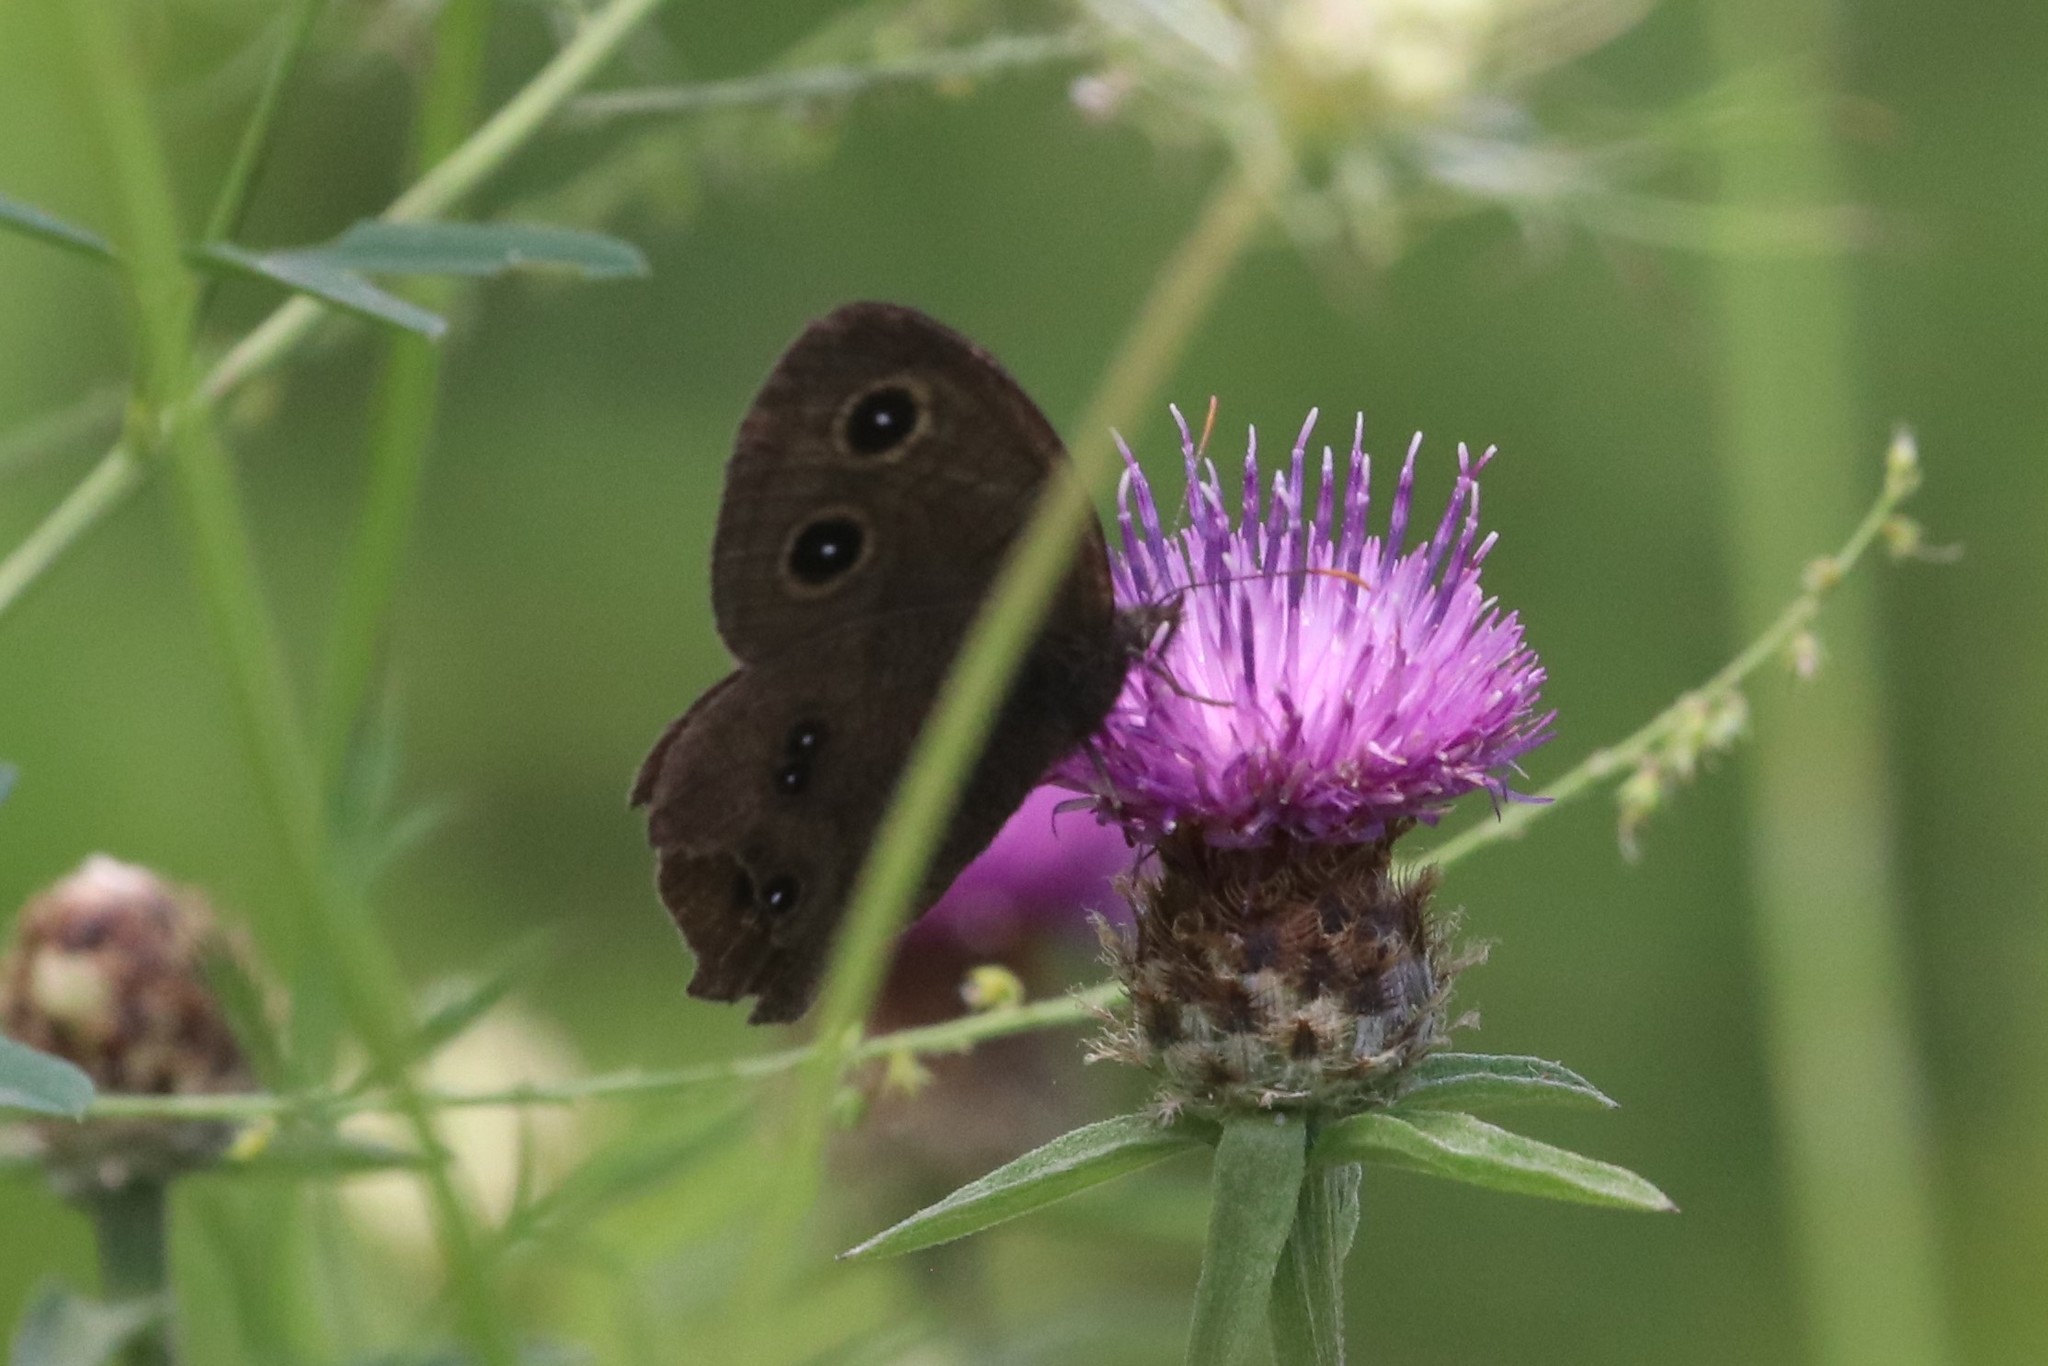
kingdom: Animalia
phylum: Arthropoda
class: Insecta
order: Lepidoptera
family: Nymphalidae
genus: Cercyonis
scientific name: Cercyonis pegala
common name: Common wood-nymph
